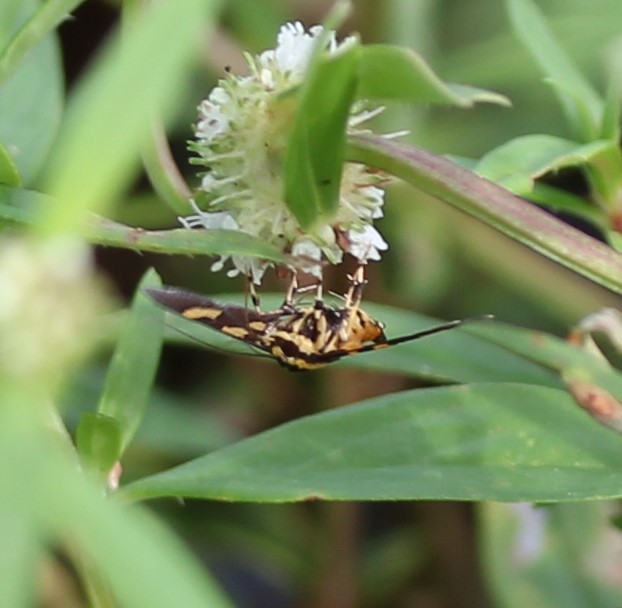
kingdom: Animalia
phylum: Arthropoda
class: Insecta
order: Lepidoptera
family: Crambidae
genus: Syngamia
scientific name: Syngamia florella
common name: Orange-spotted flower moth
